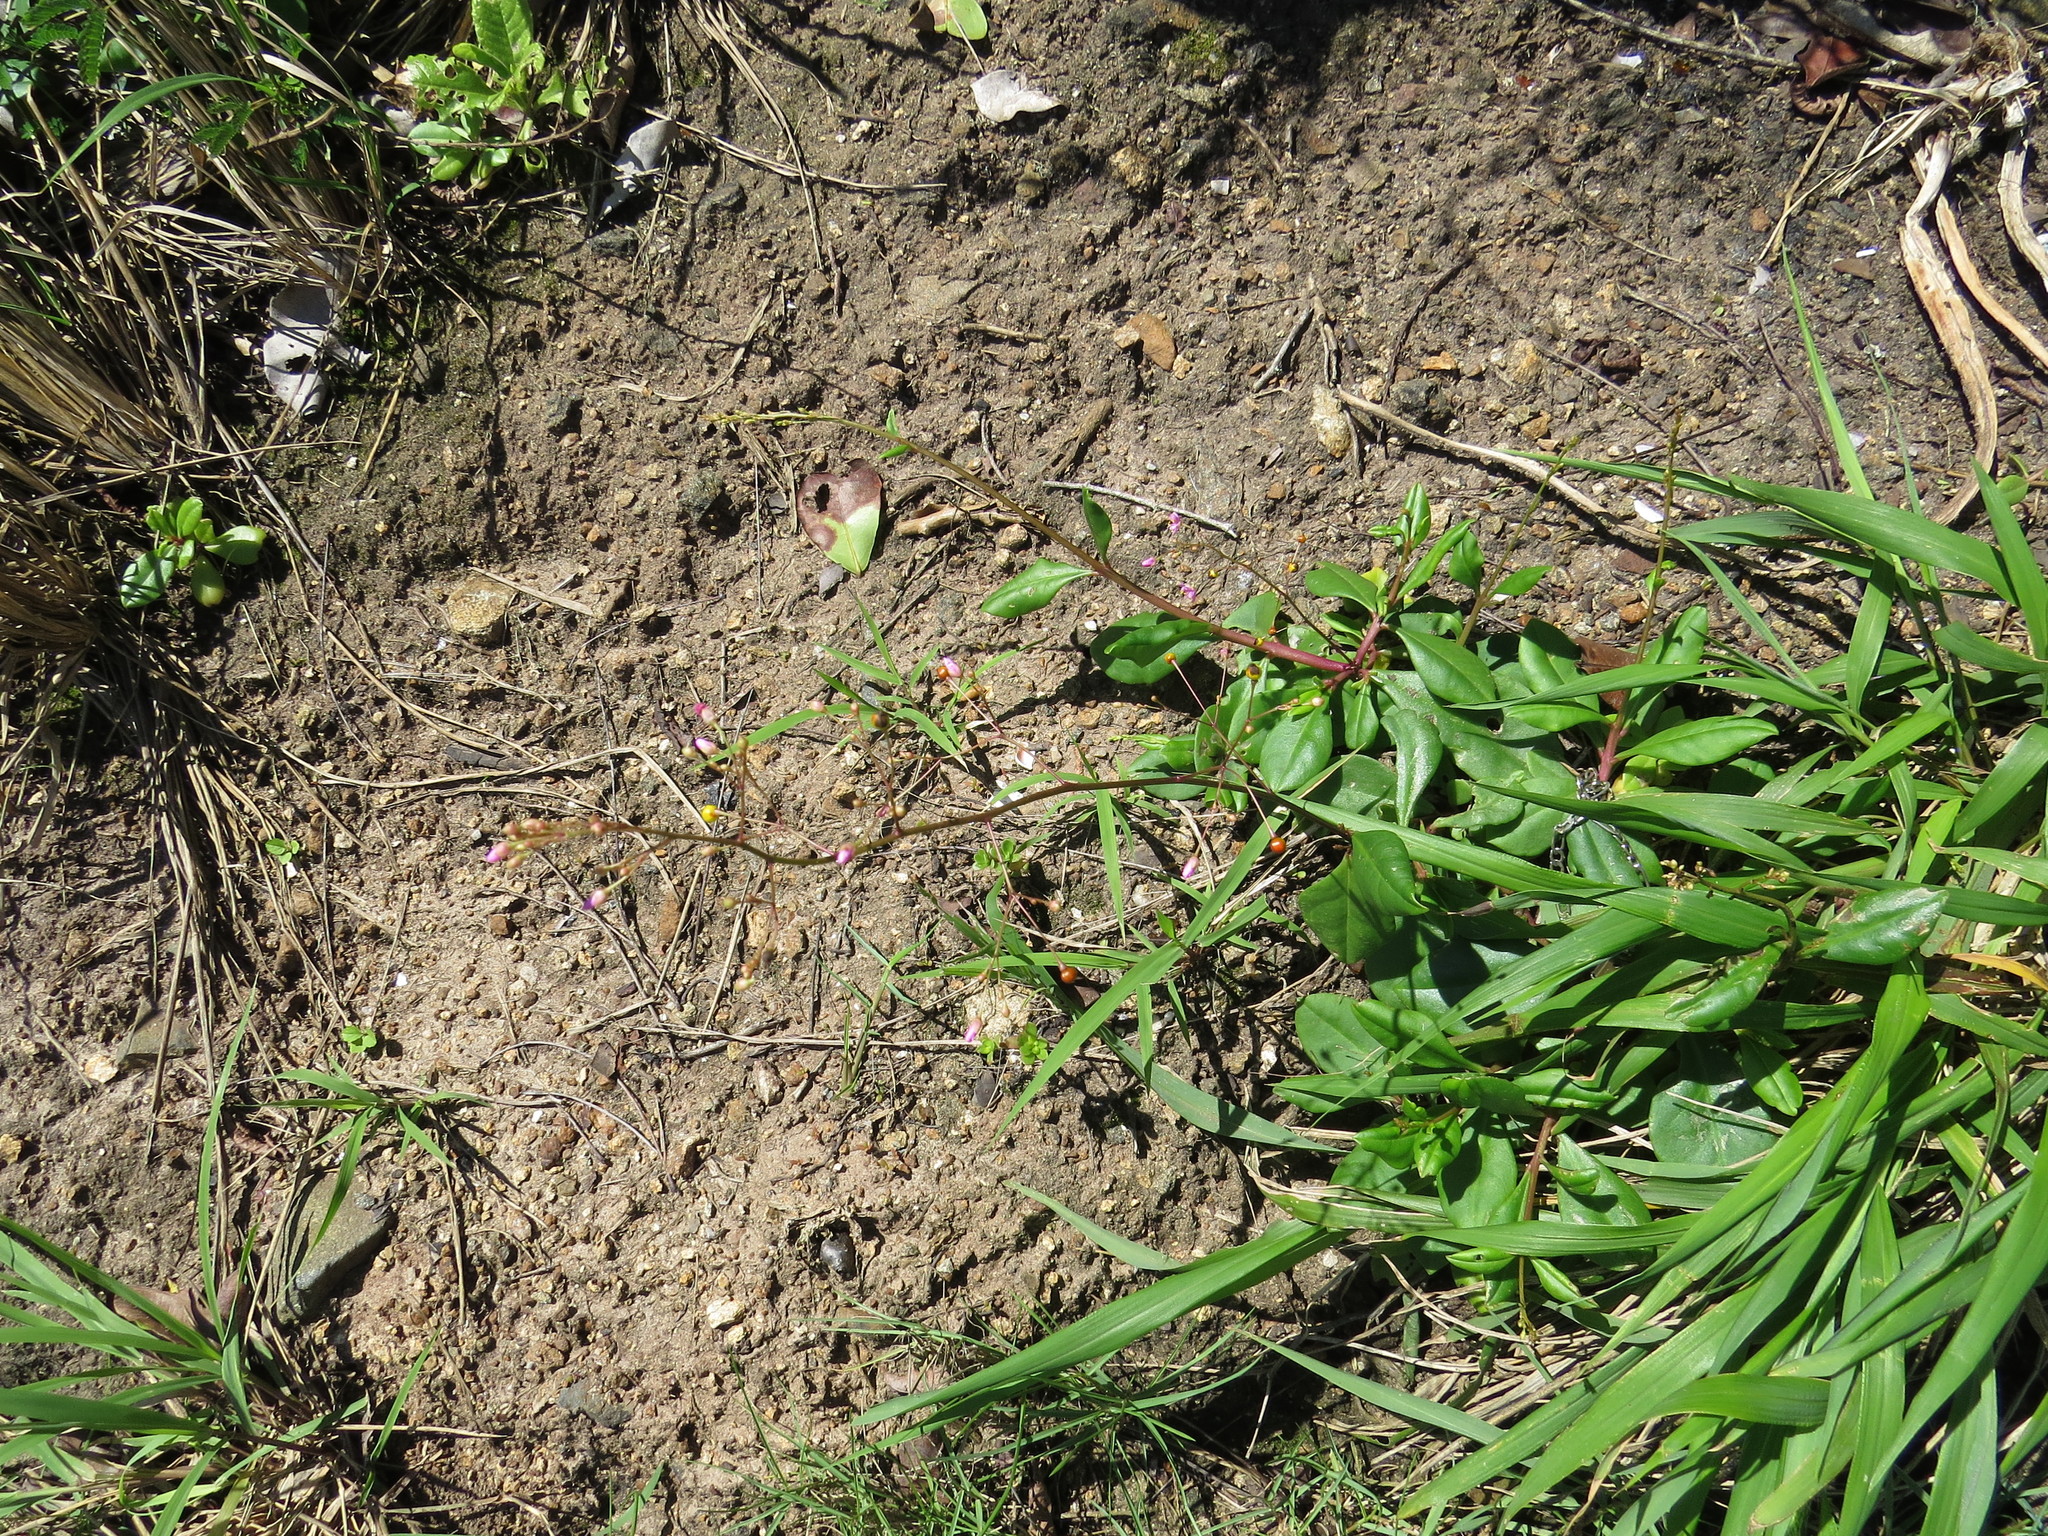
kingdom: Plantae
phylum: Tracheophyta
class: Magnoliopsida
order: Caryophyllales
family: Talinaceae
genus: Talinum
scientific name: Talinum paniculatum
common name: Jewels of opar
